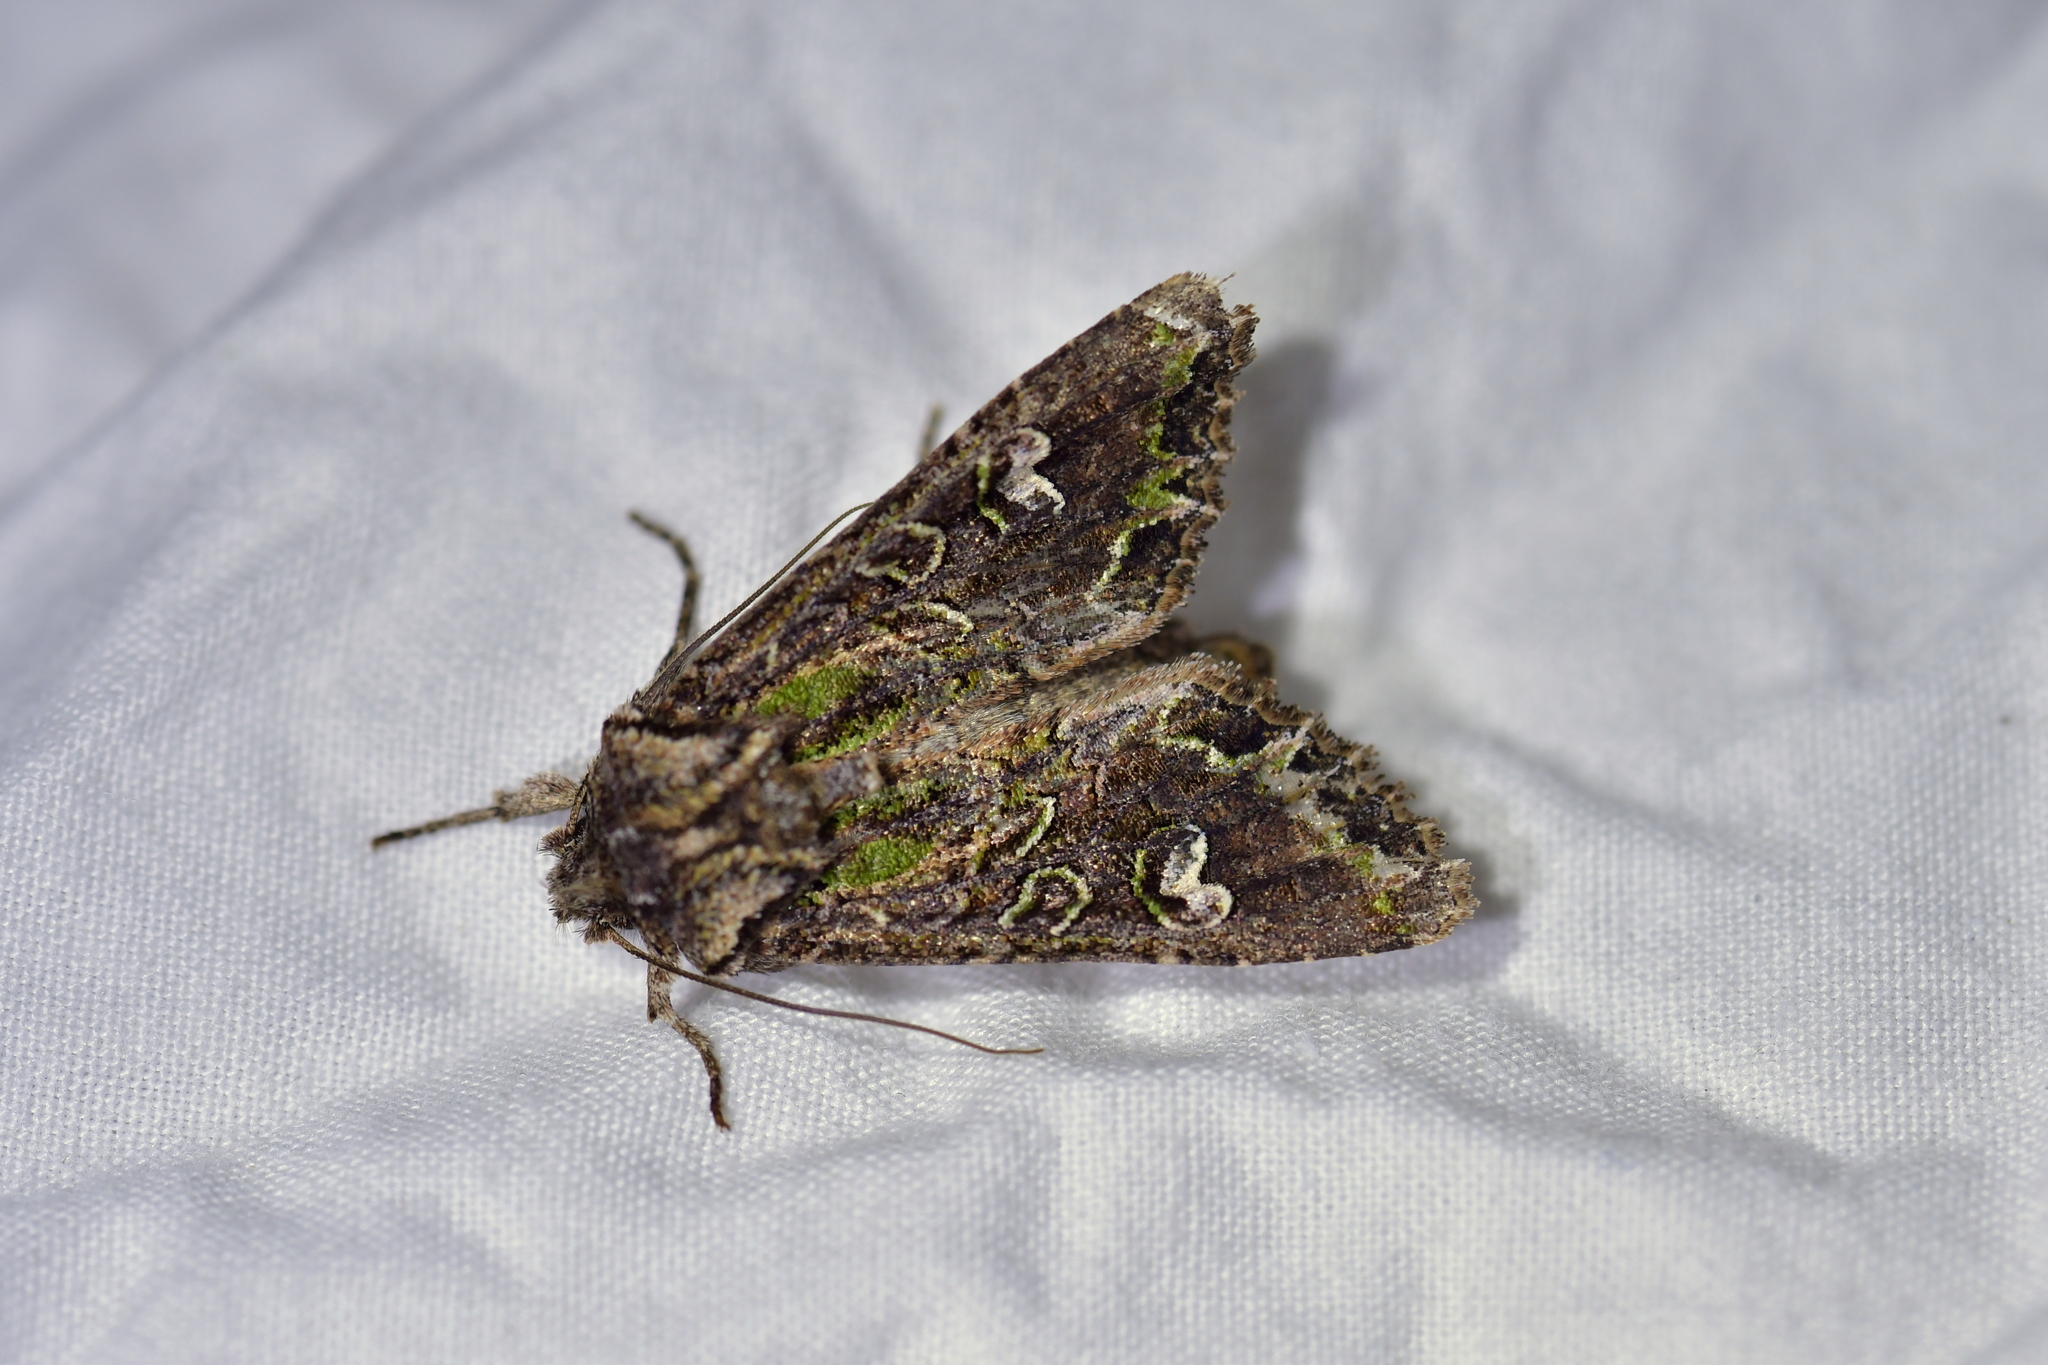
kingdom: Animalia
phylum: Arthropoda
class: Insecta
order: Lepidoptera
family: Noctuidae
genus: Ichneutica
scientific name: Ichneutica insignis
